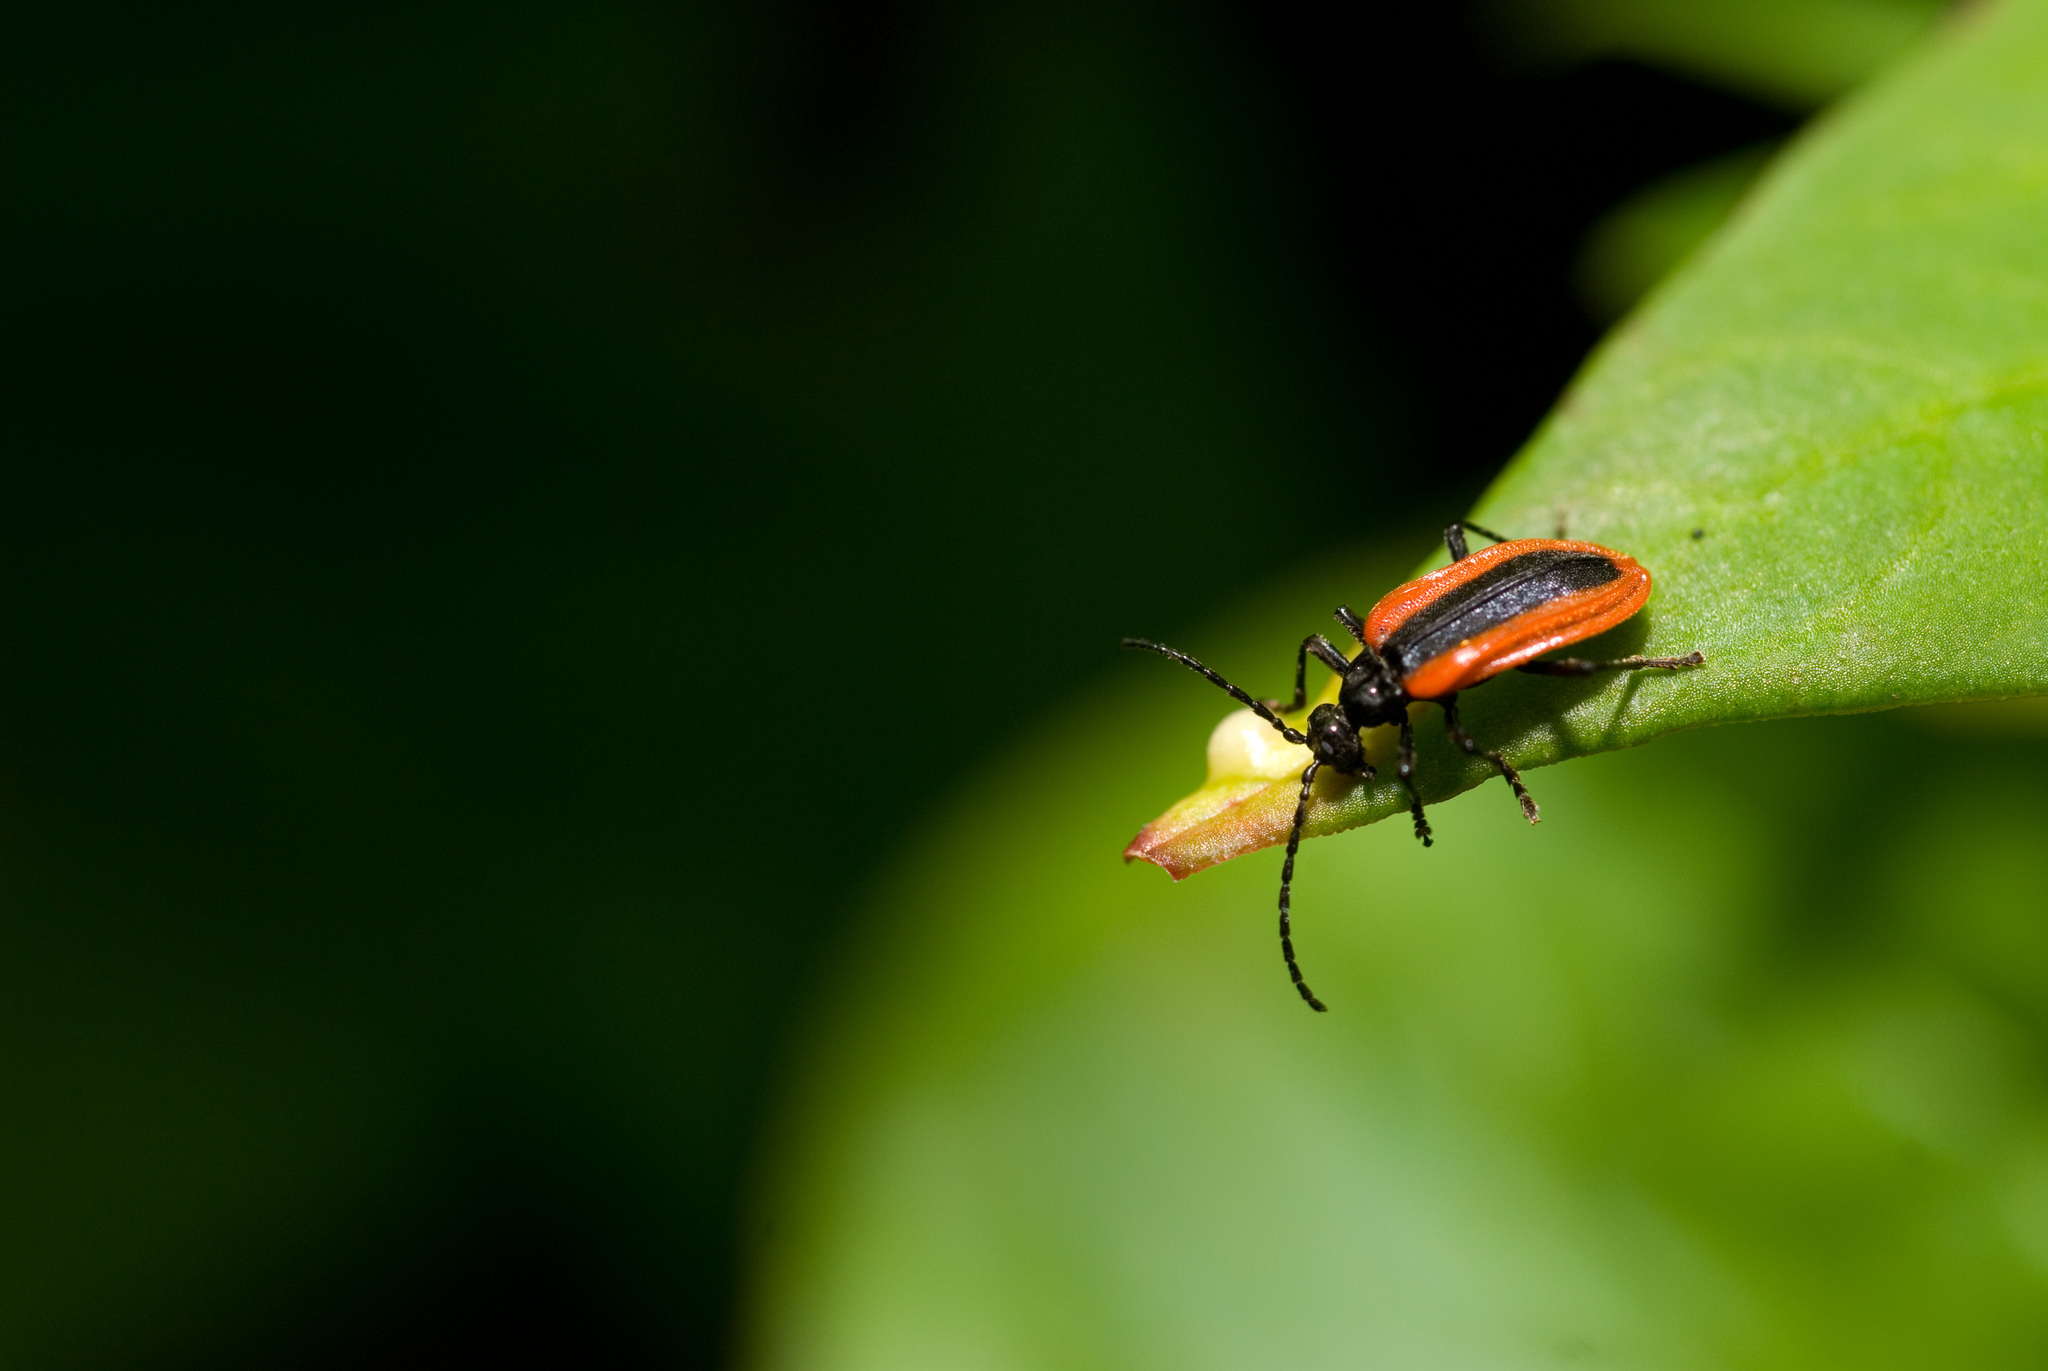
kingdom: Animalia
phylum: Arthropoda
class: Insecta
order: Coleoptera
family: Anthicidae
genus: Ischalia
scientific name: Ischalia arisana
